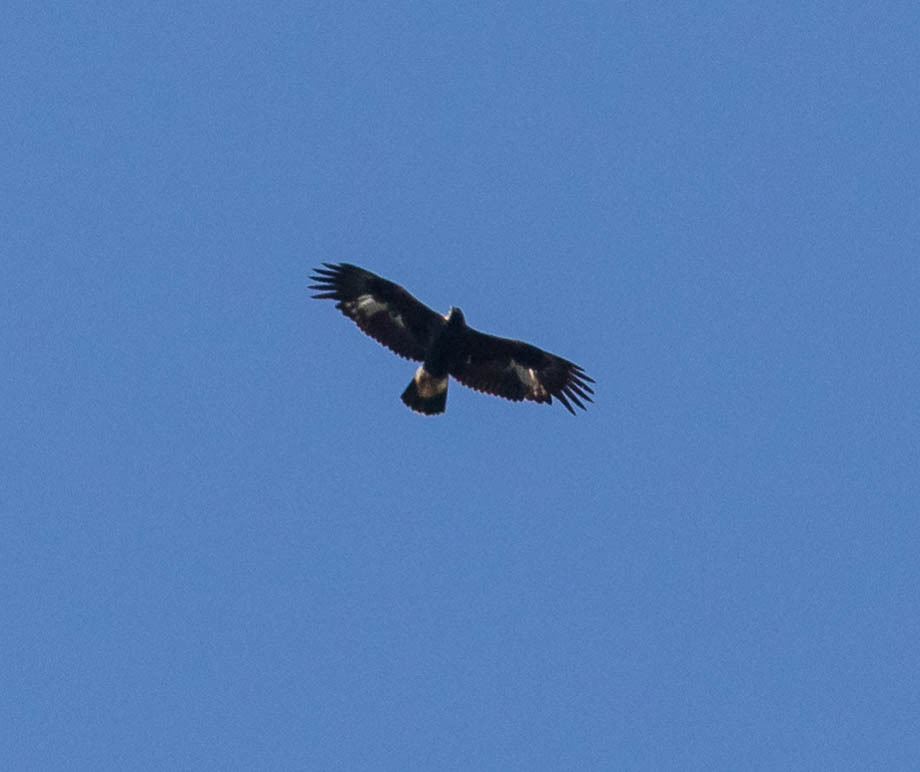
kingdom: Animalia
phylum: Chordata
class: Aves
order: Accipitriformes
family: Accipitridae
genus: Aquila
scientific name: Aquila chrysaetos
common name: Golden eagle
